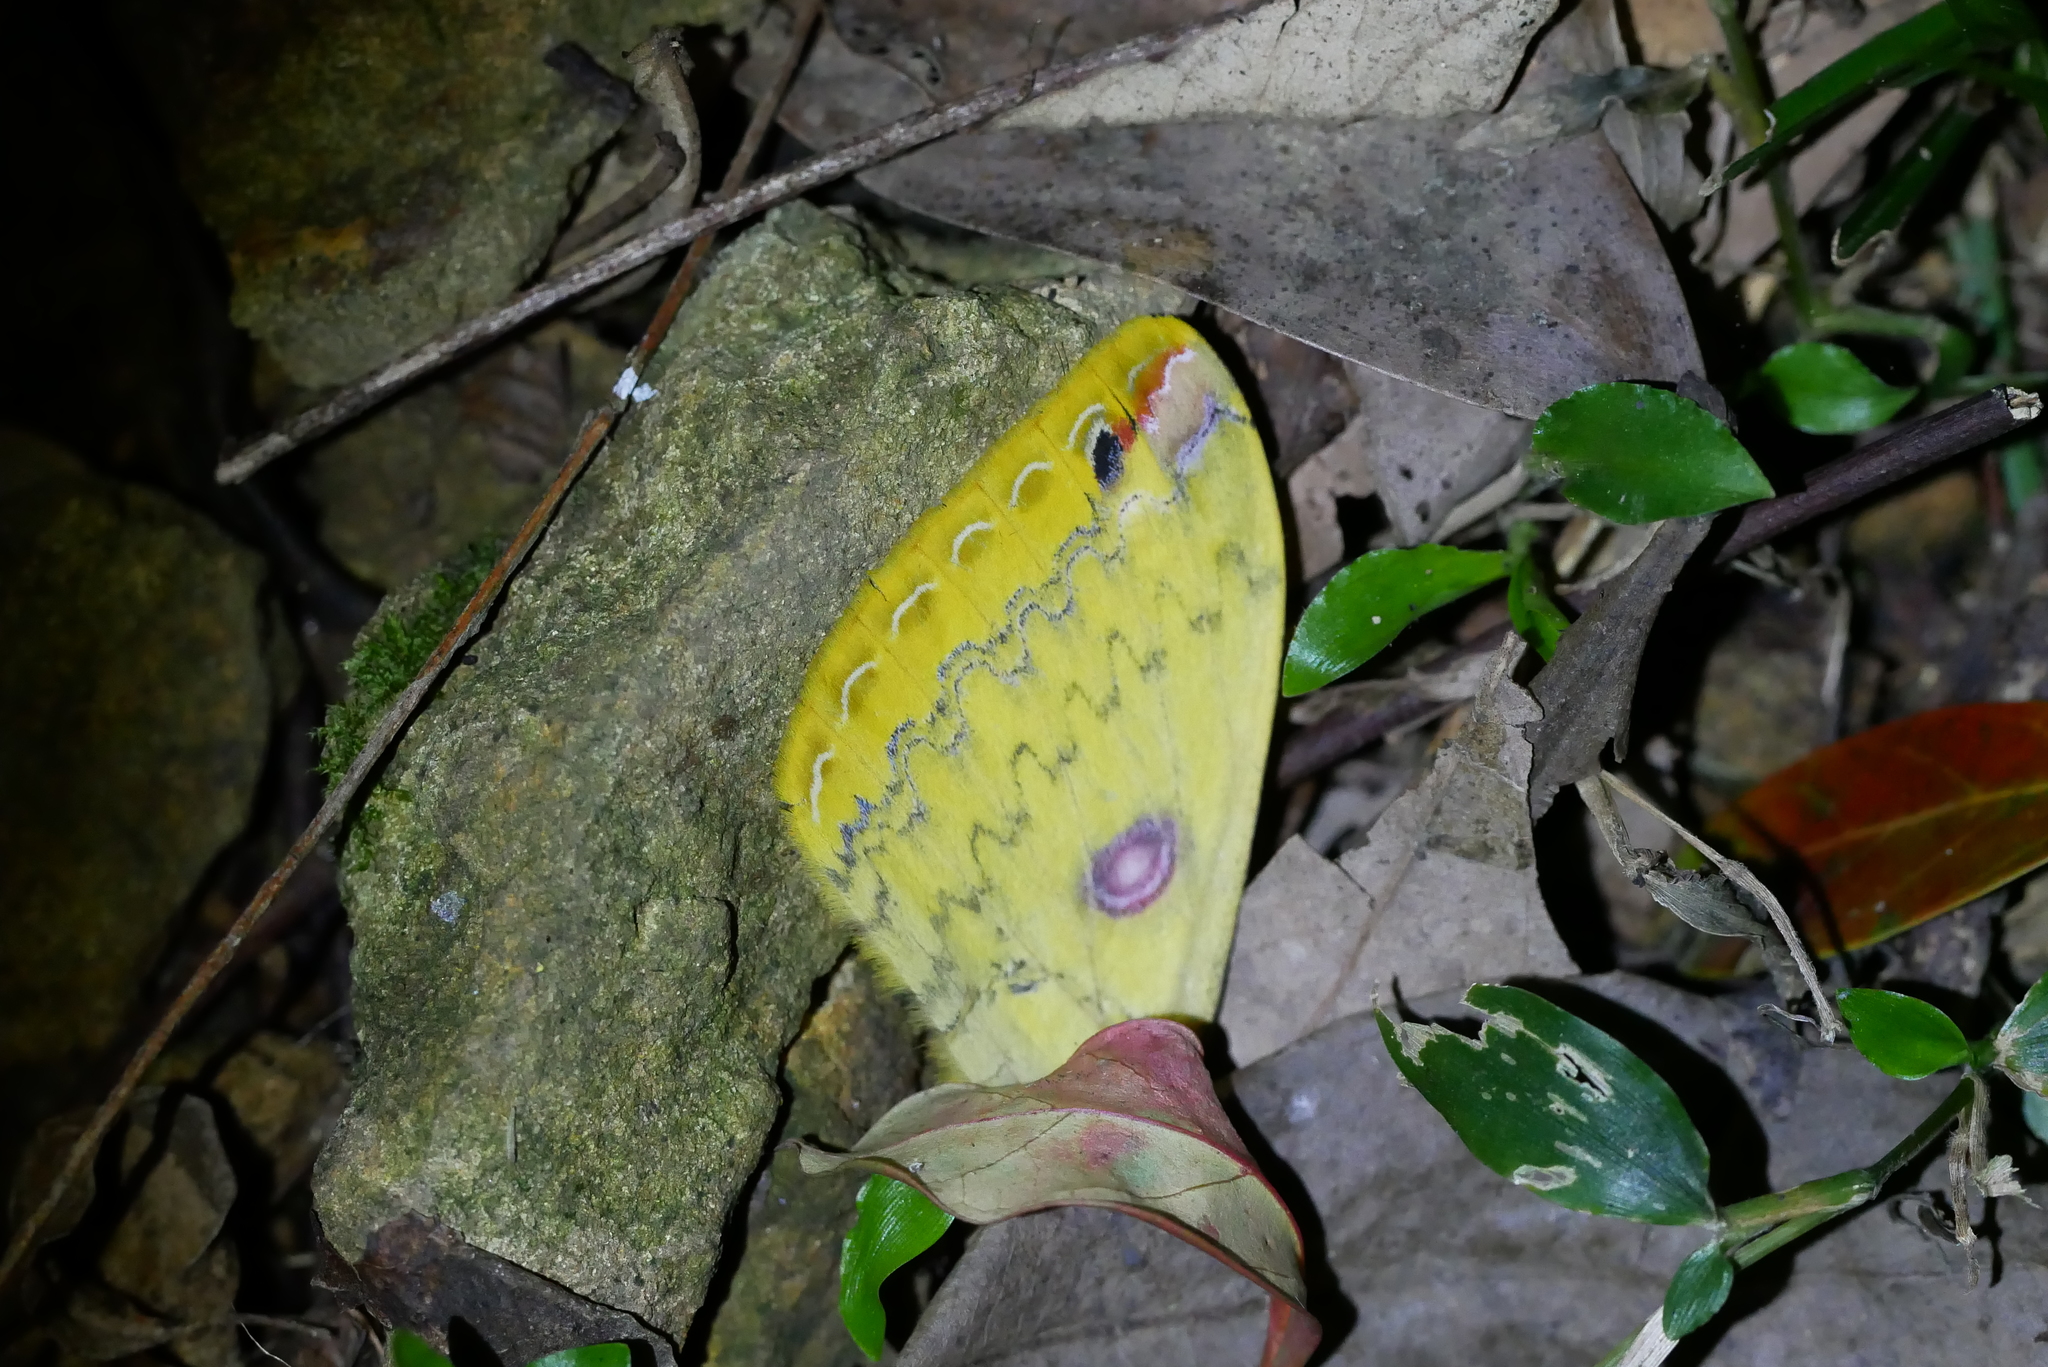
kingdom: Animalia
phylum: Arthropoda
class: Insecta
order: Lepidoptera
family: Saturniidae
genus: Loepa
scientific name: Loepa formosensis
